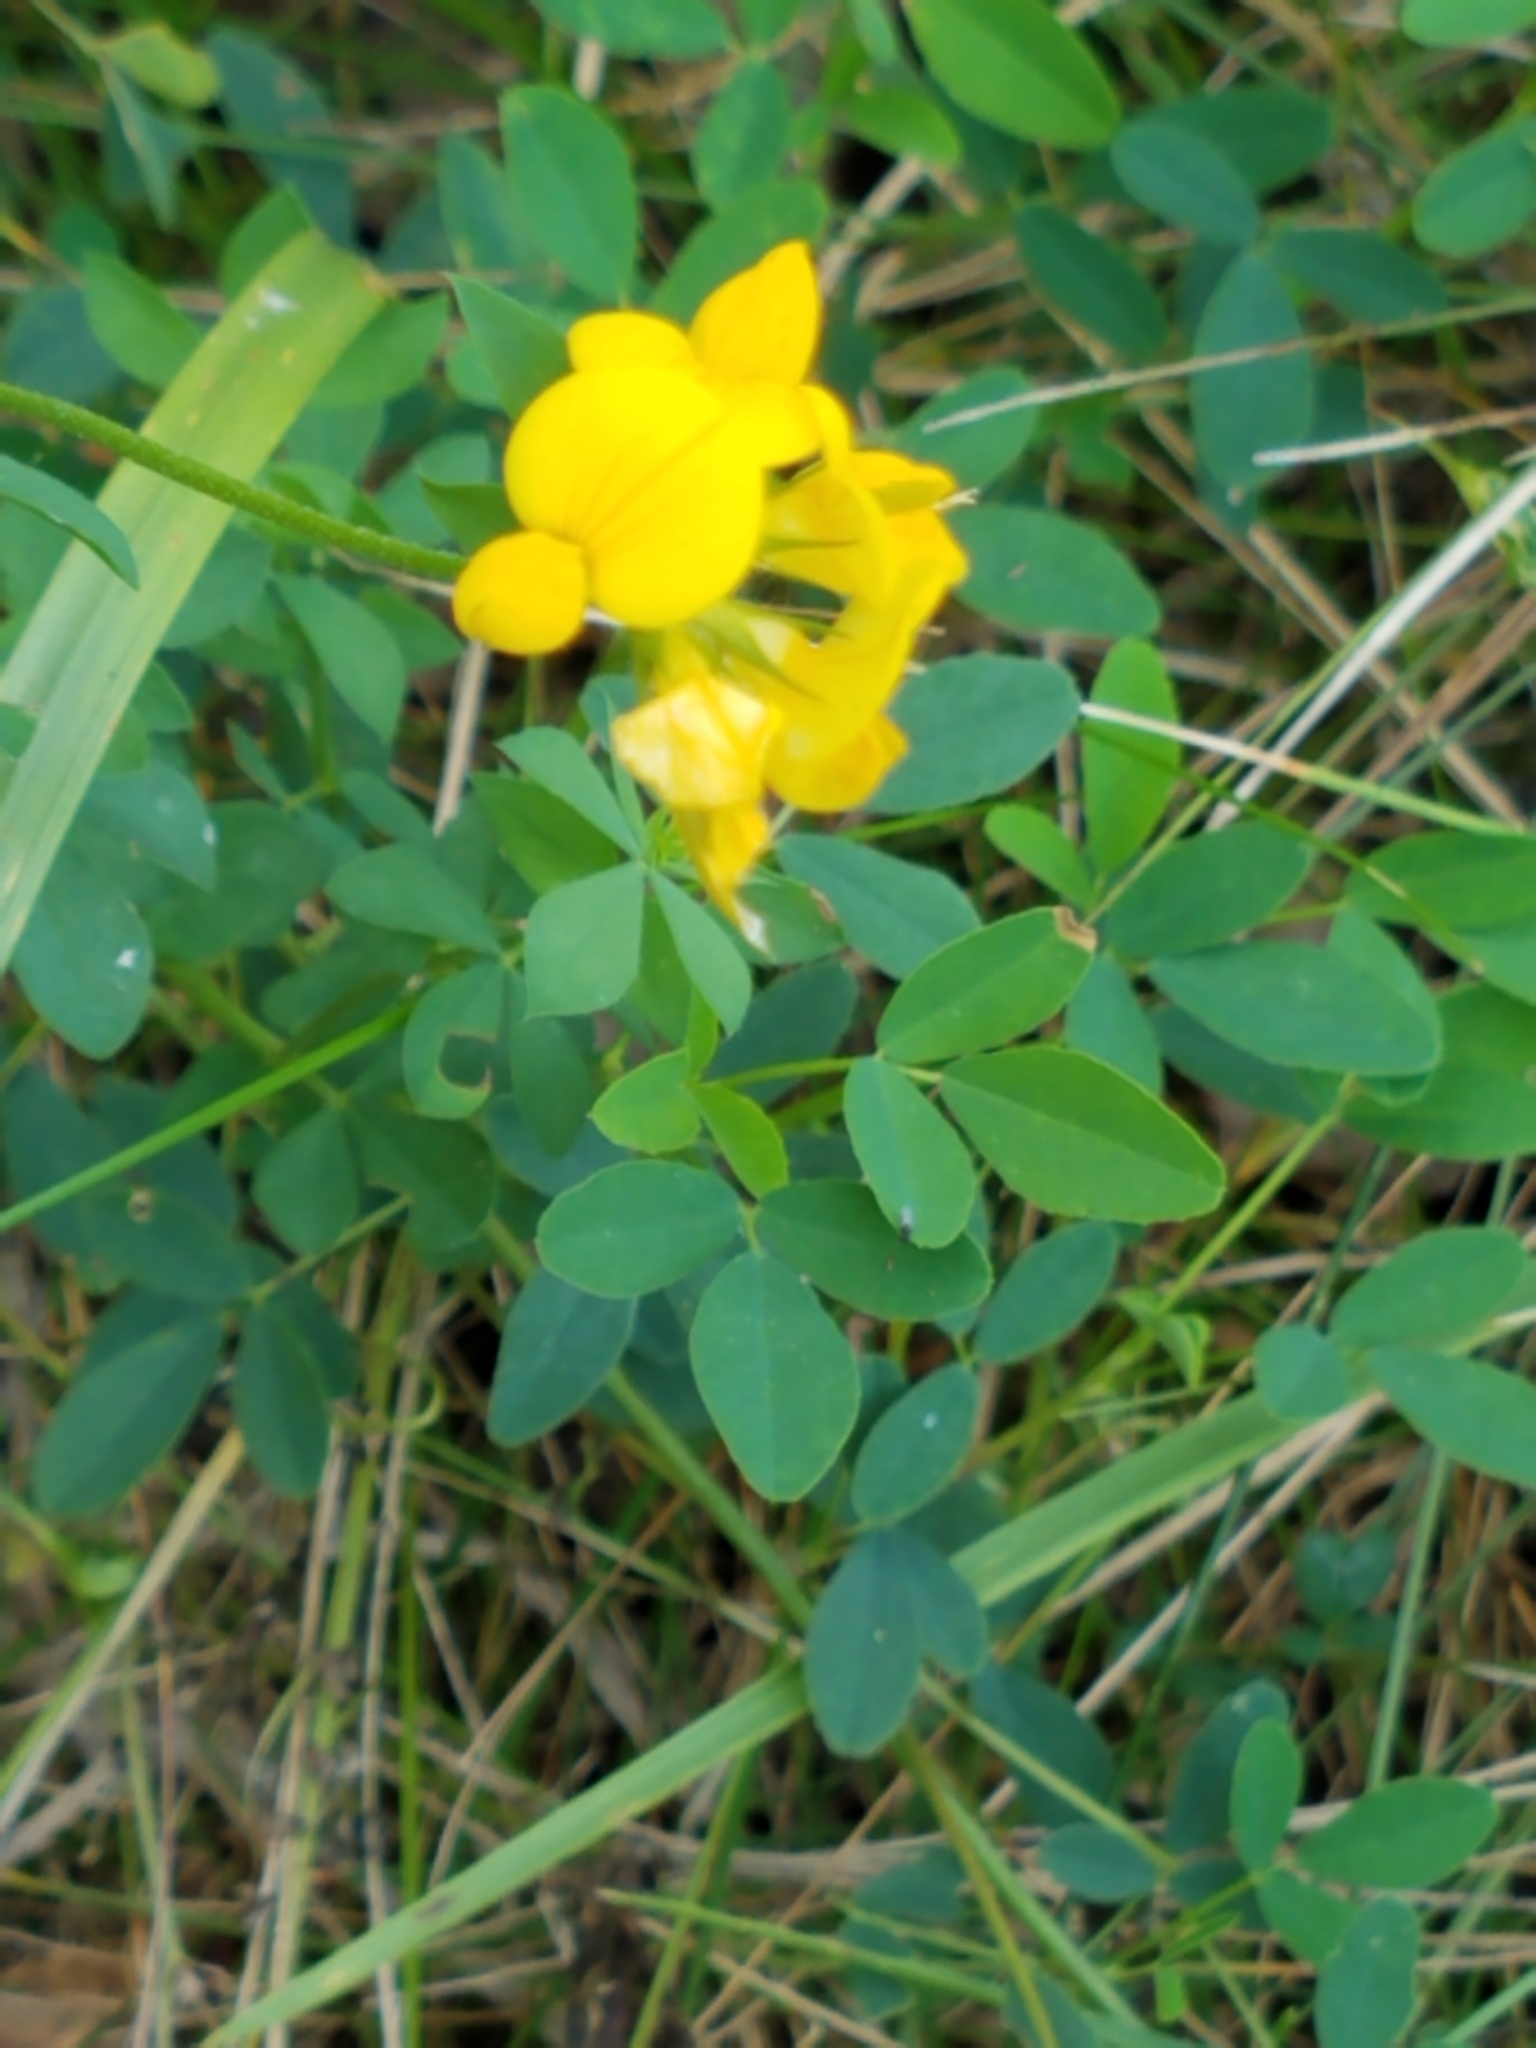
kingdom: Plantae
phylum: Tracheophyta
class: Magnoliopsida
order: Fabales
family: Fabaceae
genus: Lotus
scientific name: Lotus corniculatus
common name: Common bird's-foot-trefoil
